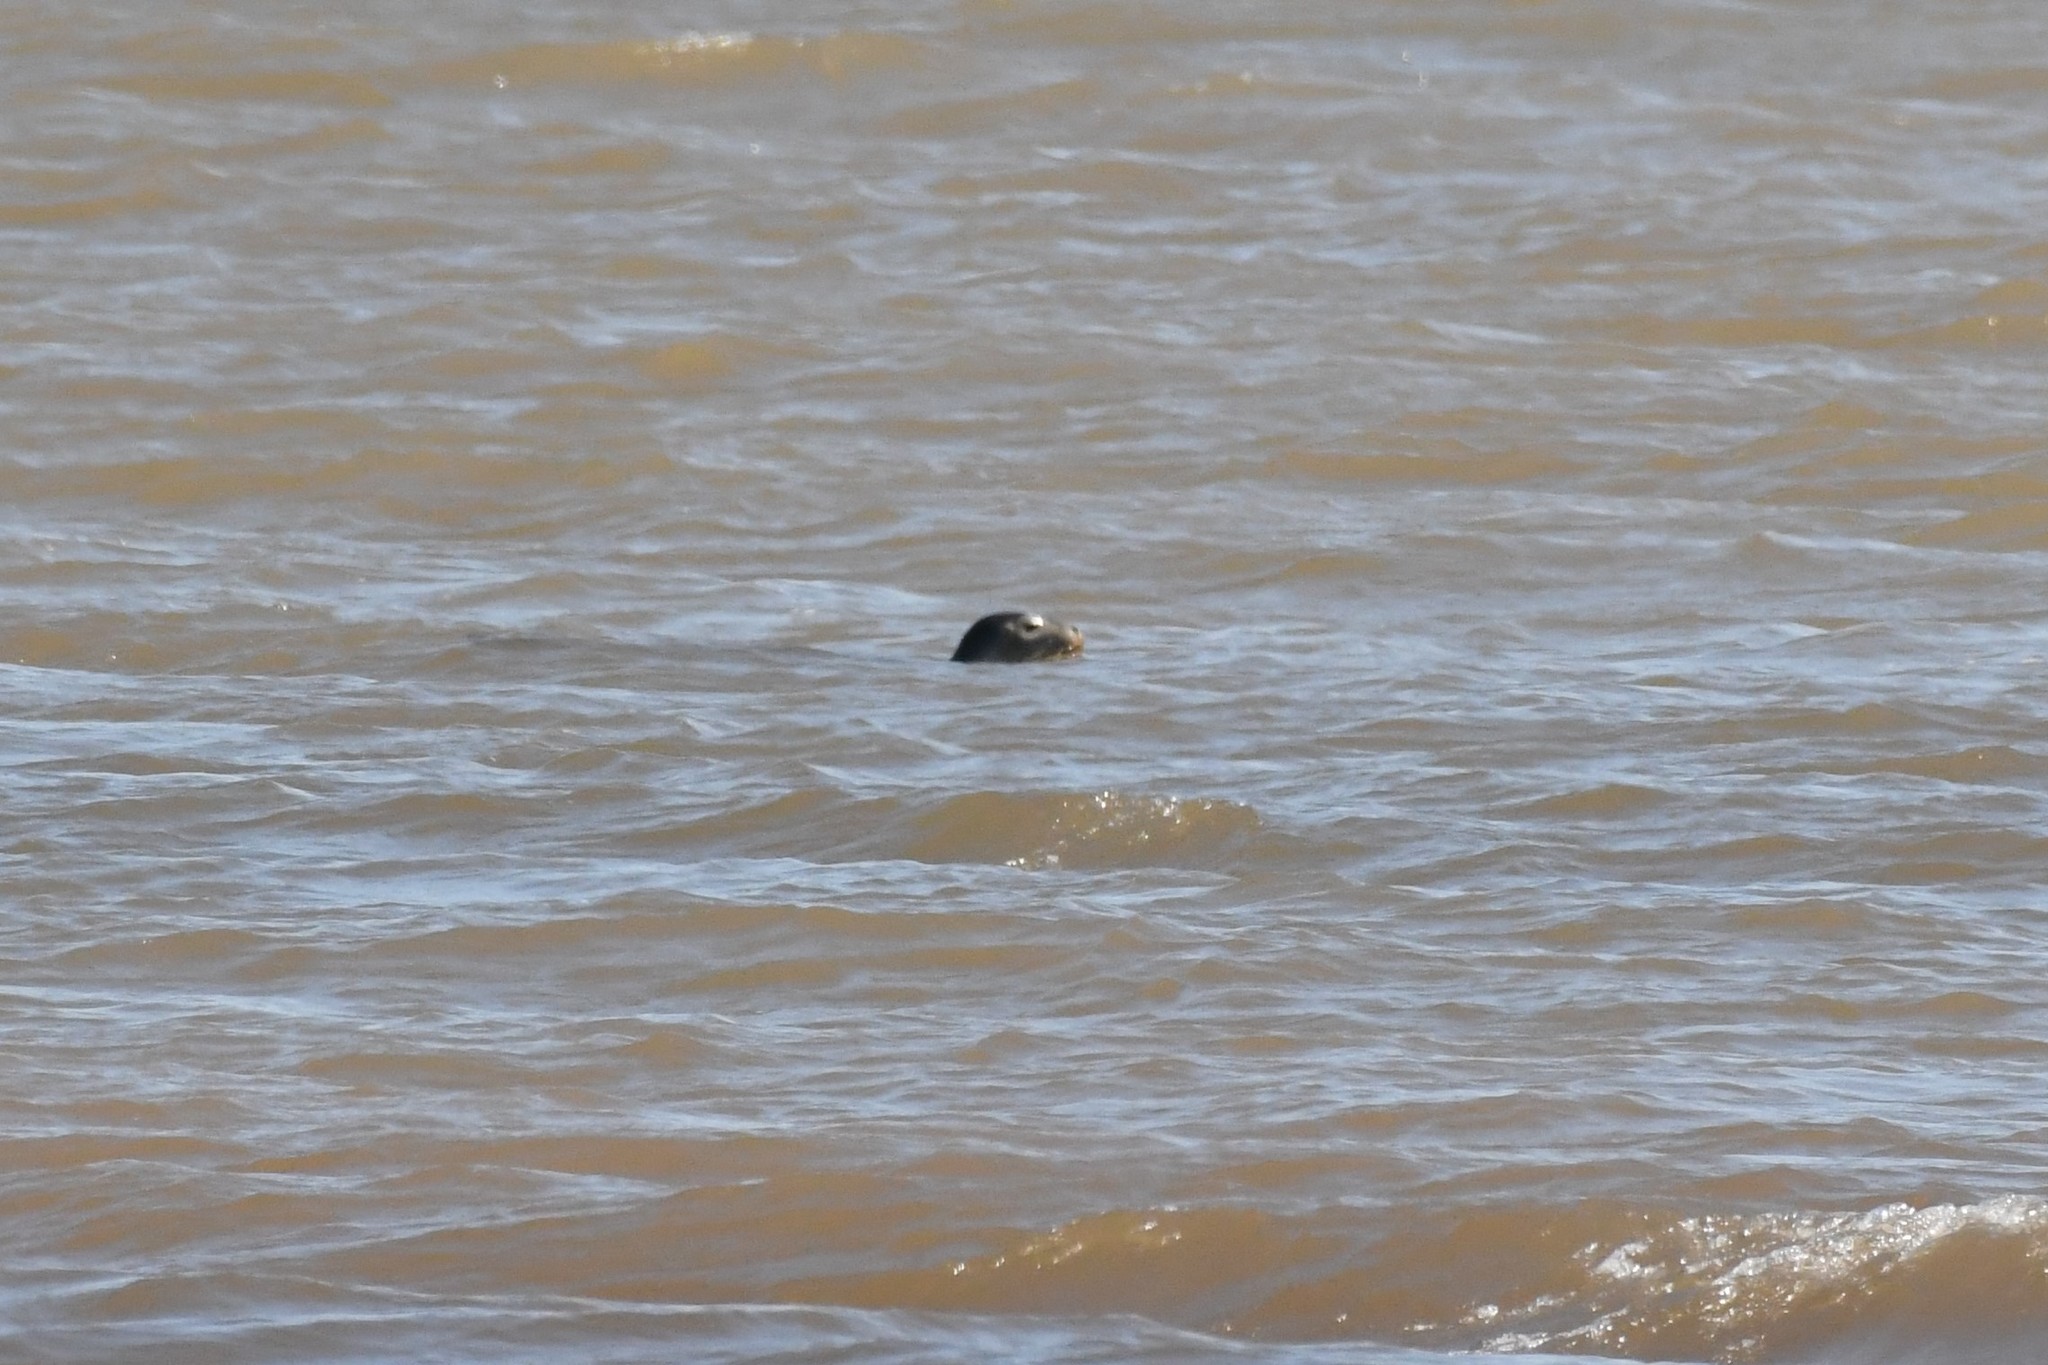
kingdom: Animalia
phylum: Chordata
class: Mammalia
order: Carnivora
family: Phocidae
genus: Phoca
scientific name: Phoca vitulina
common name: Harbor seal
